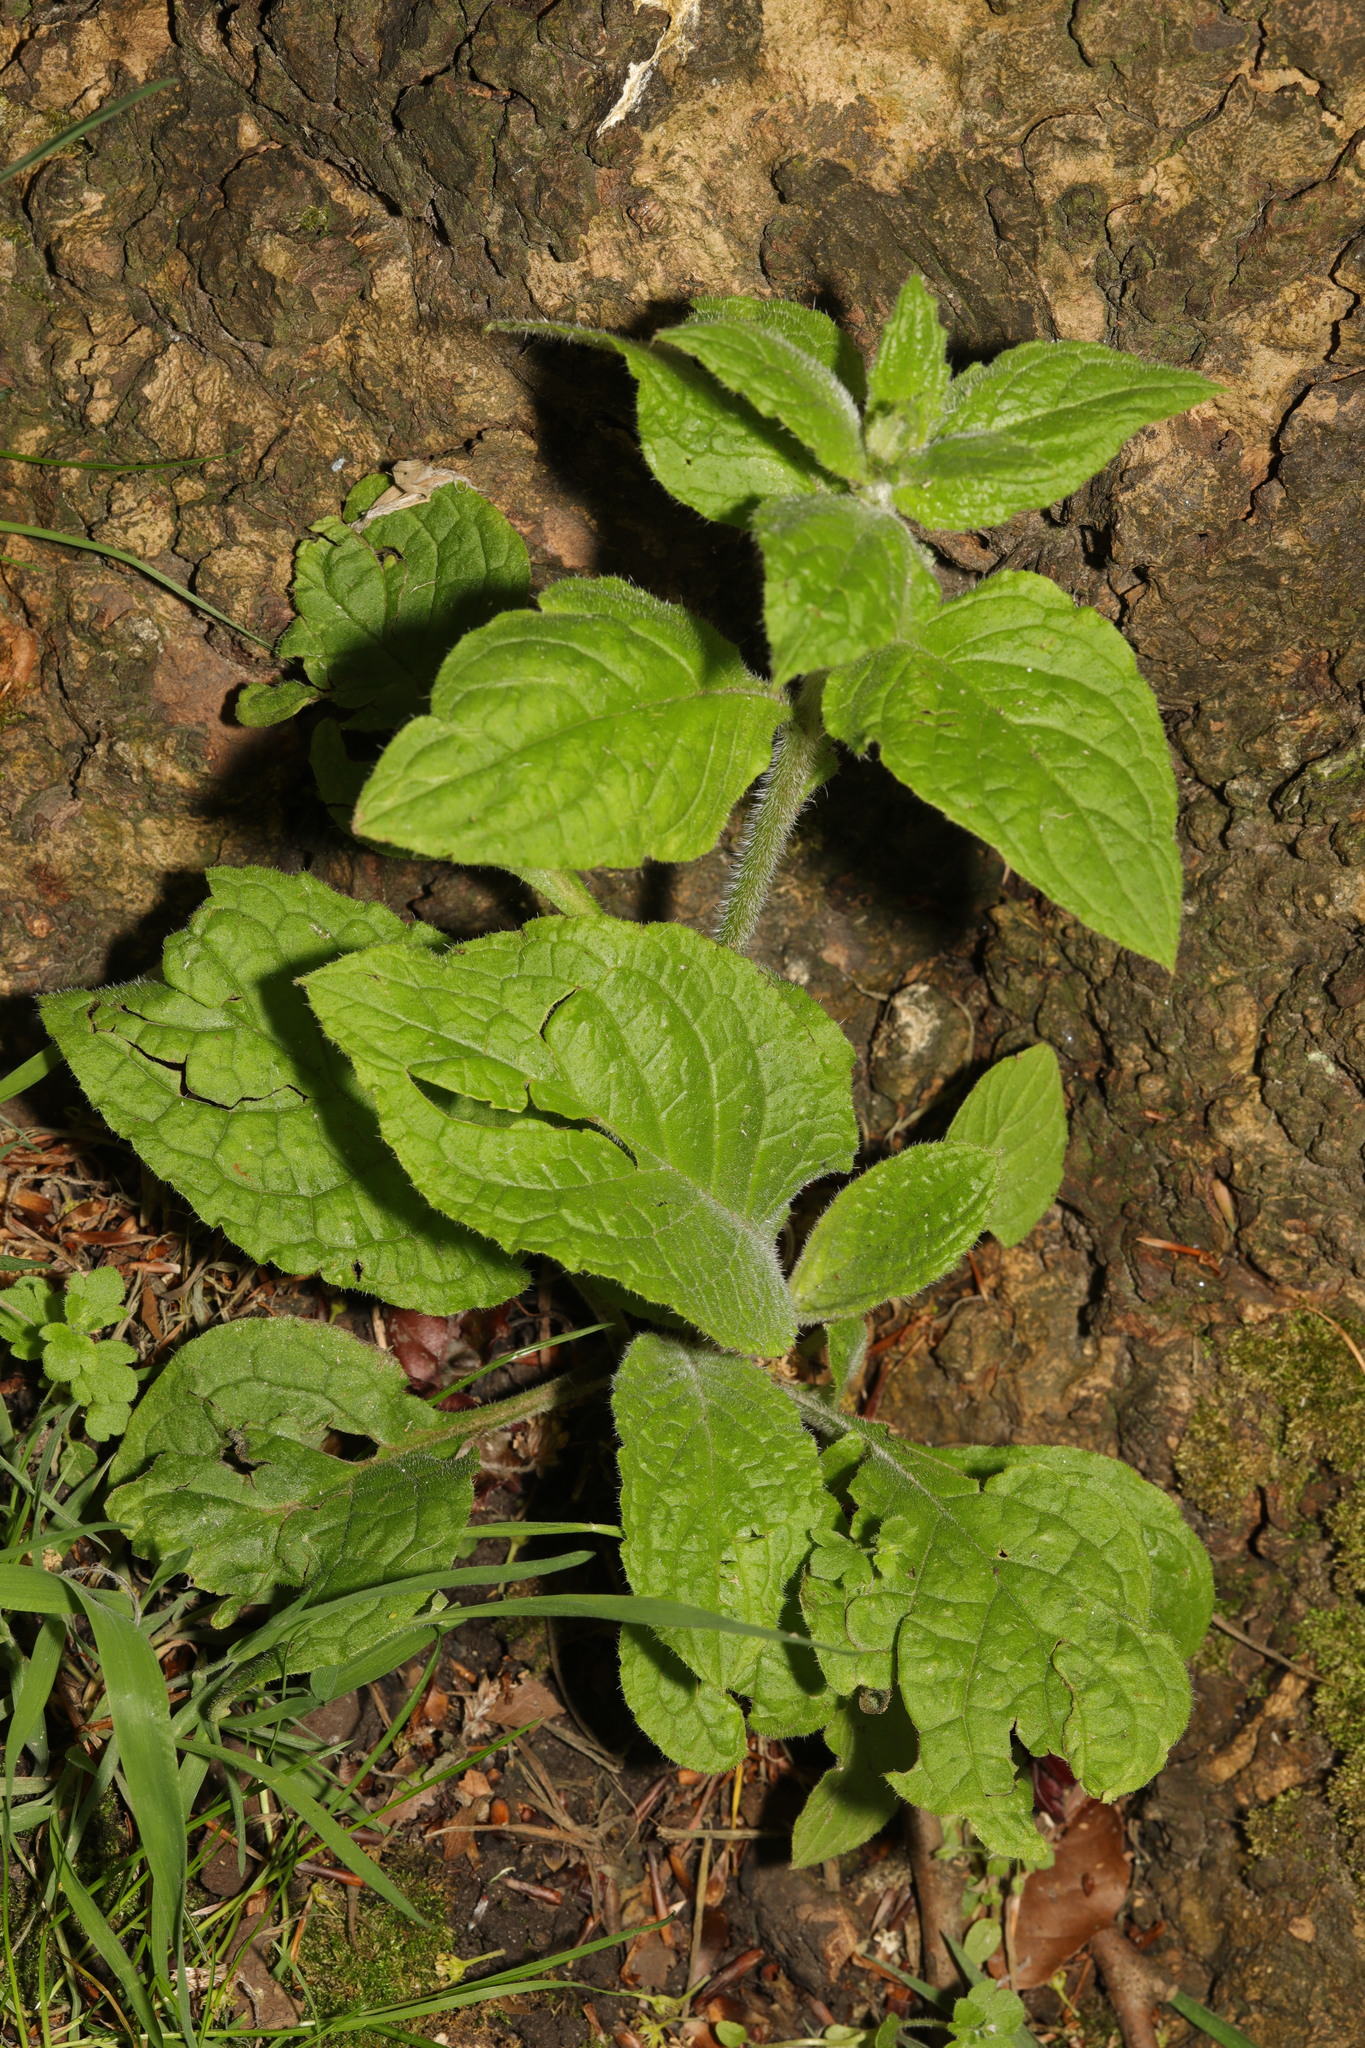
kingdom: Plantae
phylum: Tracheophyta
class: Magnoliopsida
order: Boraginales
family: Boraginaceae
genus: Pentaglottis
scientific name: Pentaglottis sempervirens
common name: Green alkanet
